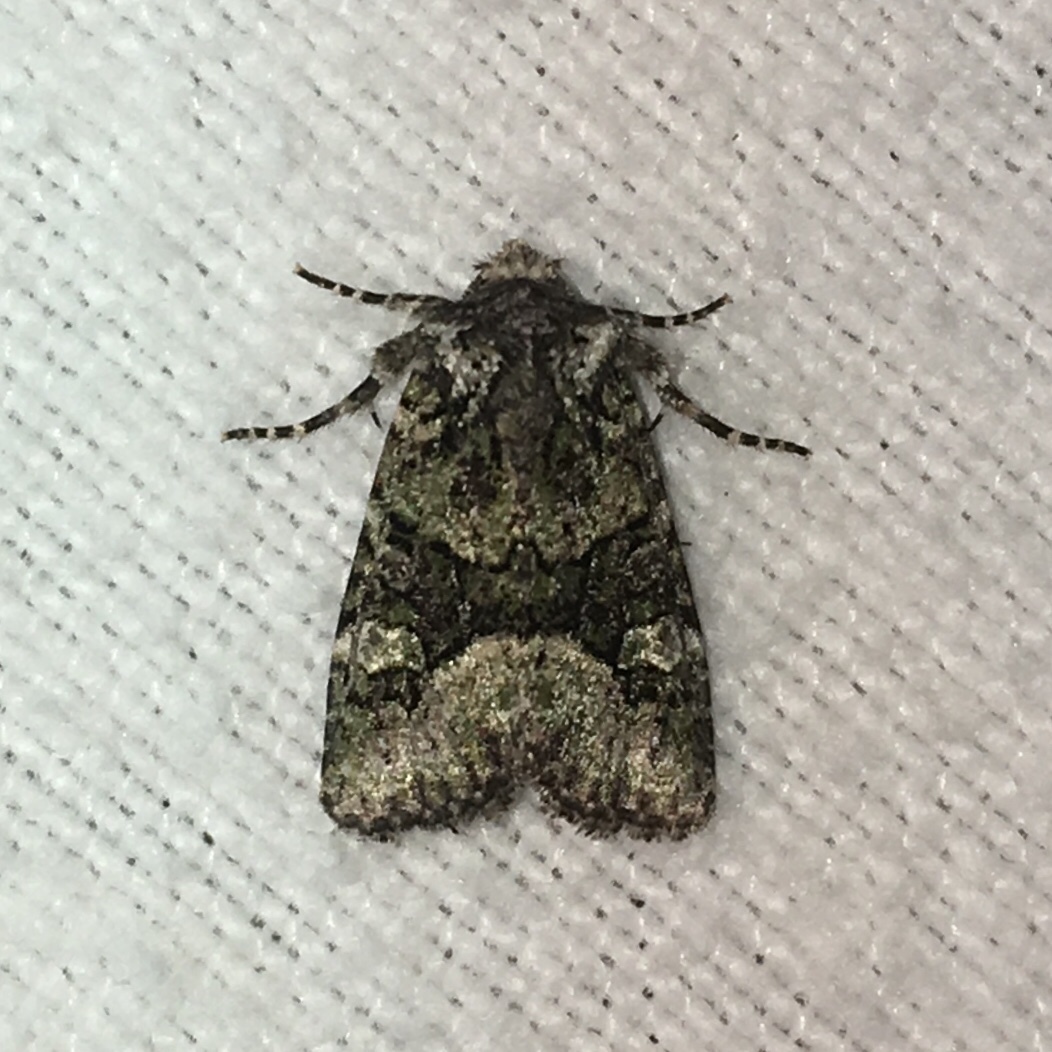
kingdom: Animalia
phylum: Arthropoda
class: Insecta
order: Lepidoptera
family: Noctuidae
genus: Lacinipolia
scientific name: Lacinipolia olivacea
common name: Olive arches moth
